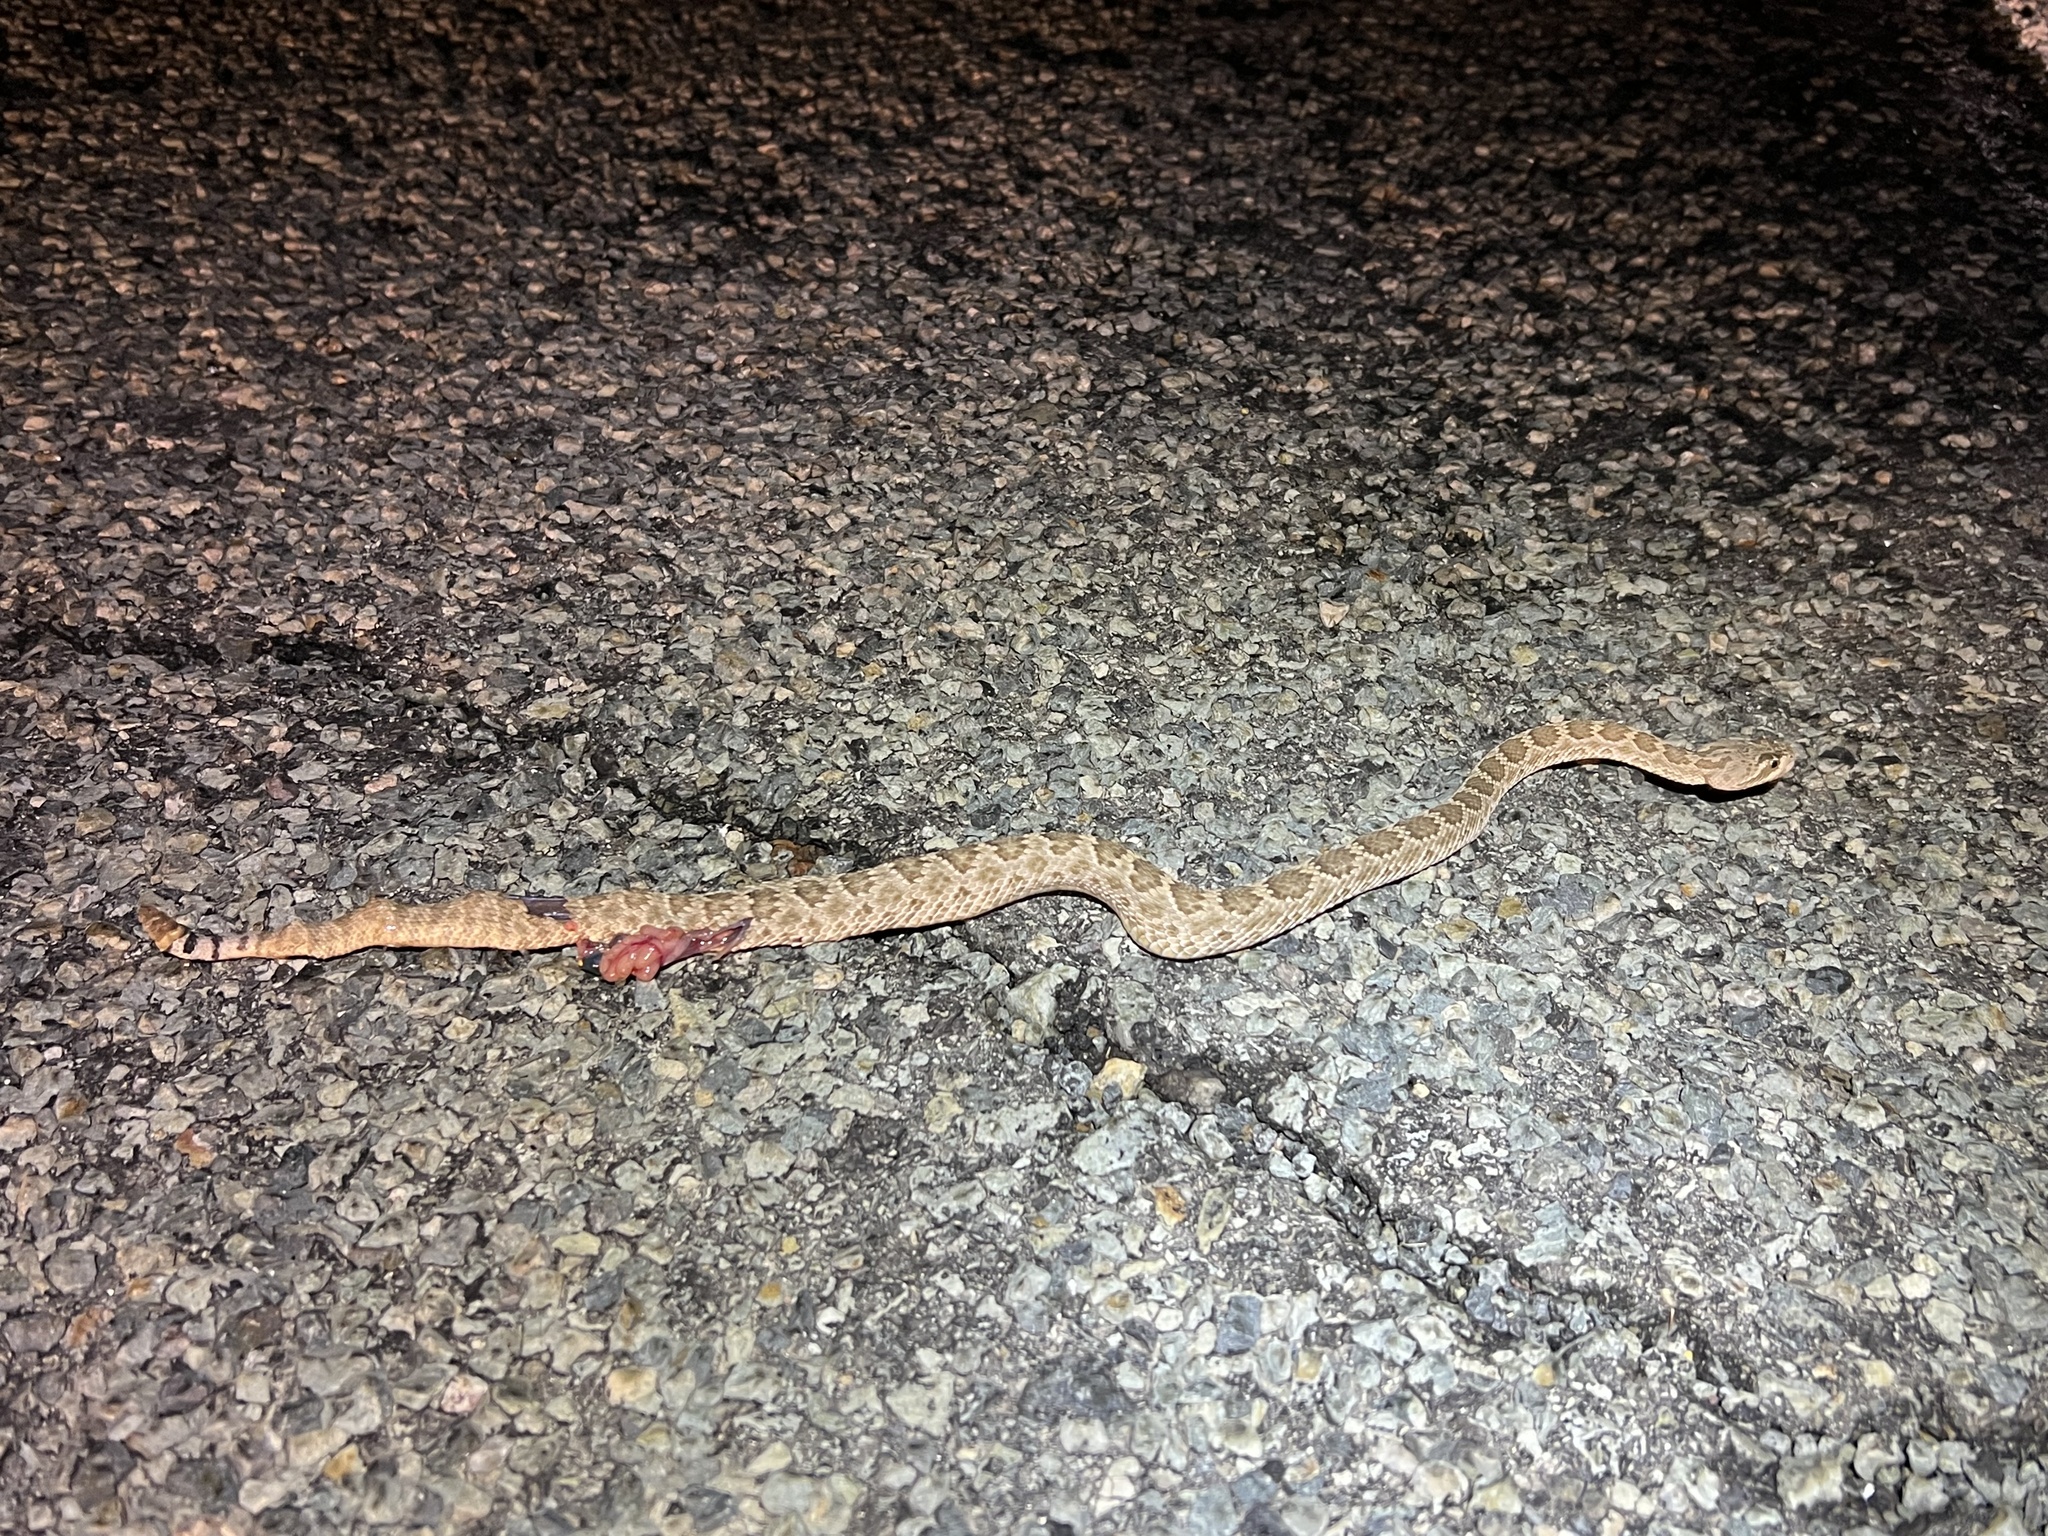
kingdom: Animalia
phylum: Chordata
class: Squamata
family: Viperidae
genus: Crotalus
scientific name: Crotalus scutulatus
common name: Scutulatus
